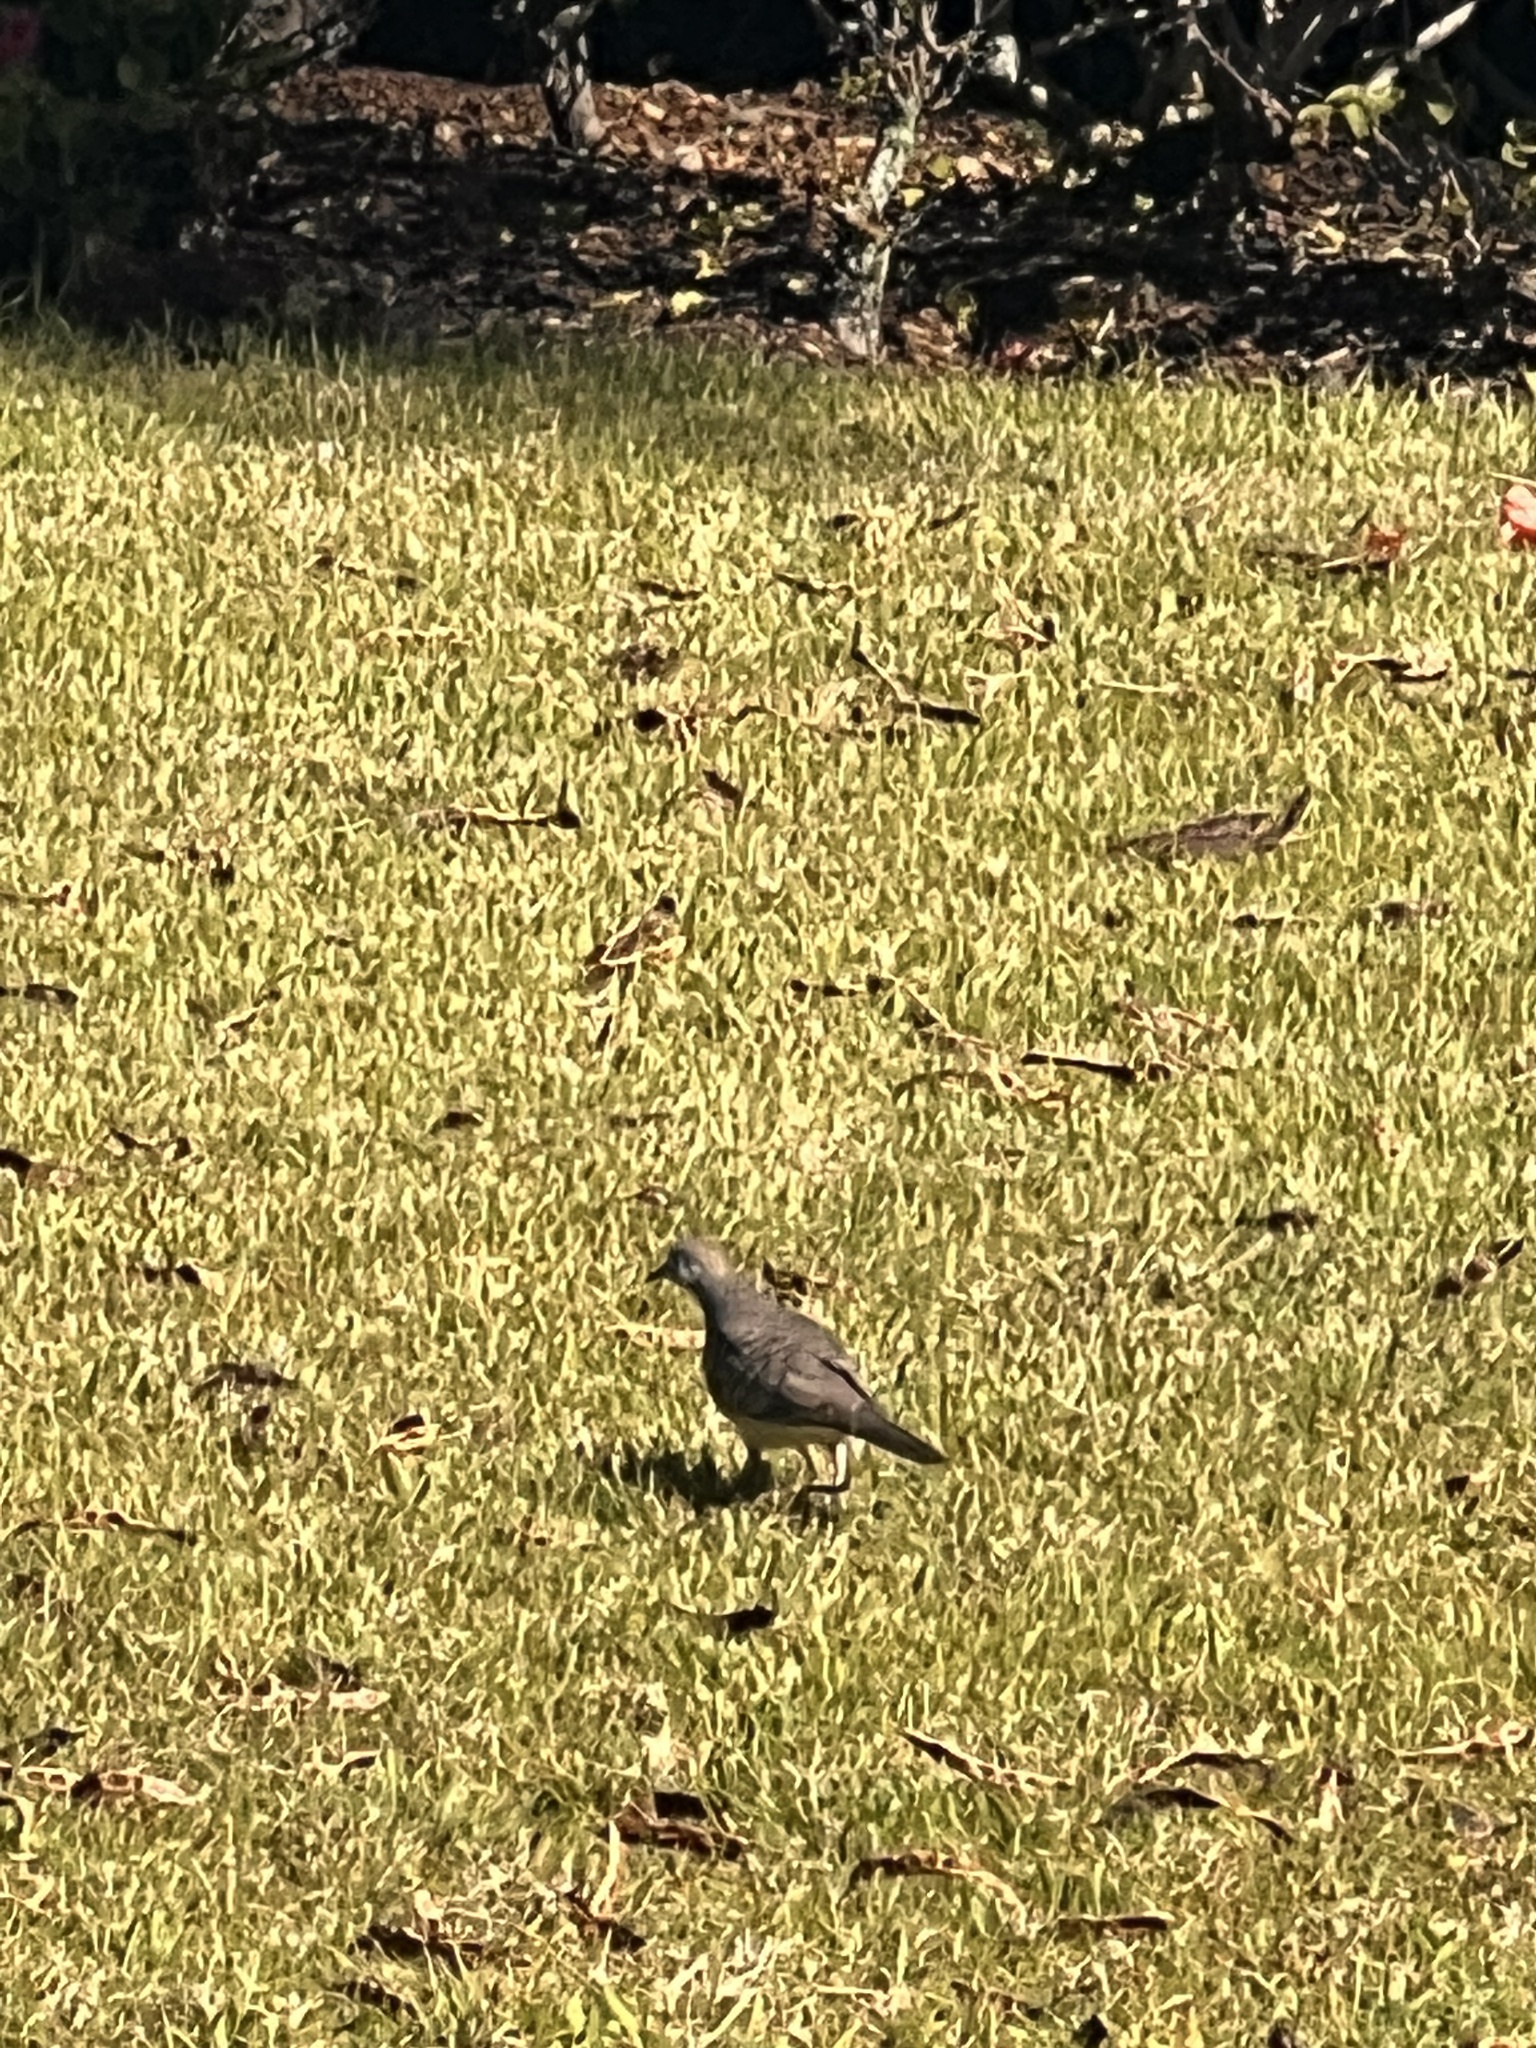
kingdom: Animalia
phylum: Chordata
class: Aves
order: Columbiformes
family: Columbidae
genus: Geopelia
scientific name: Geopelia striata
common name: Zebra dove
